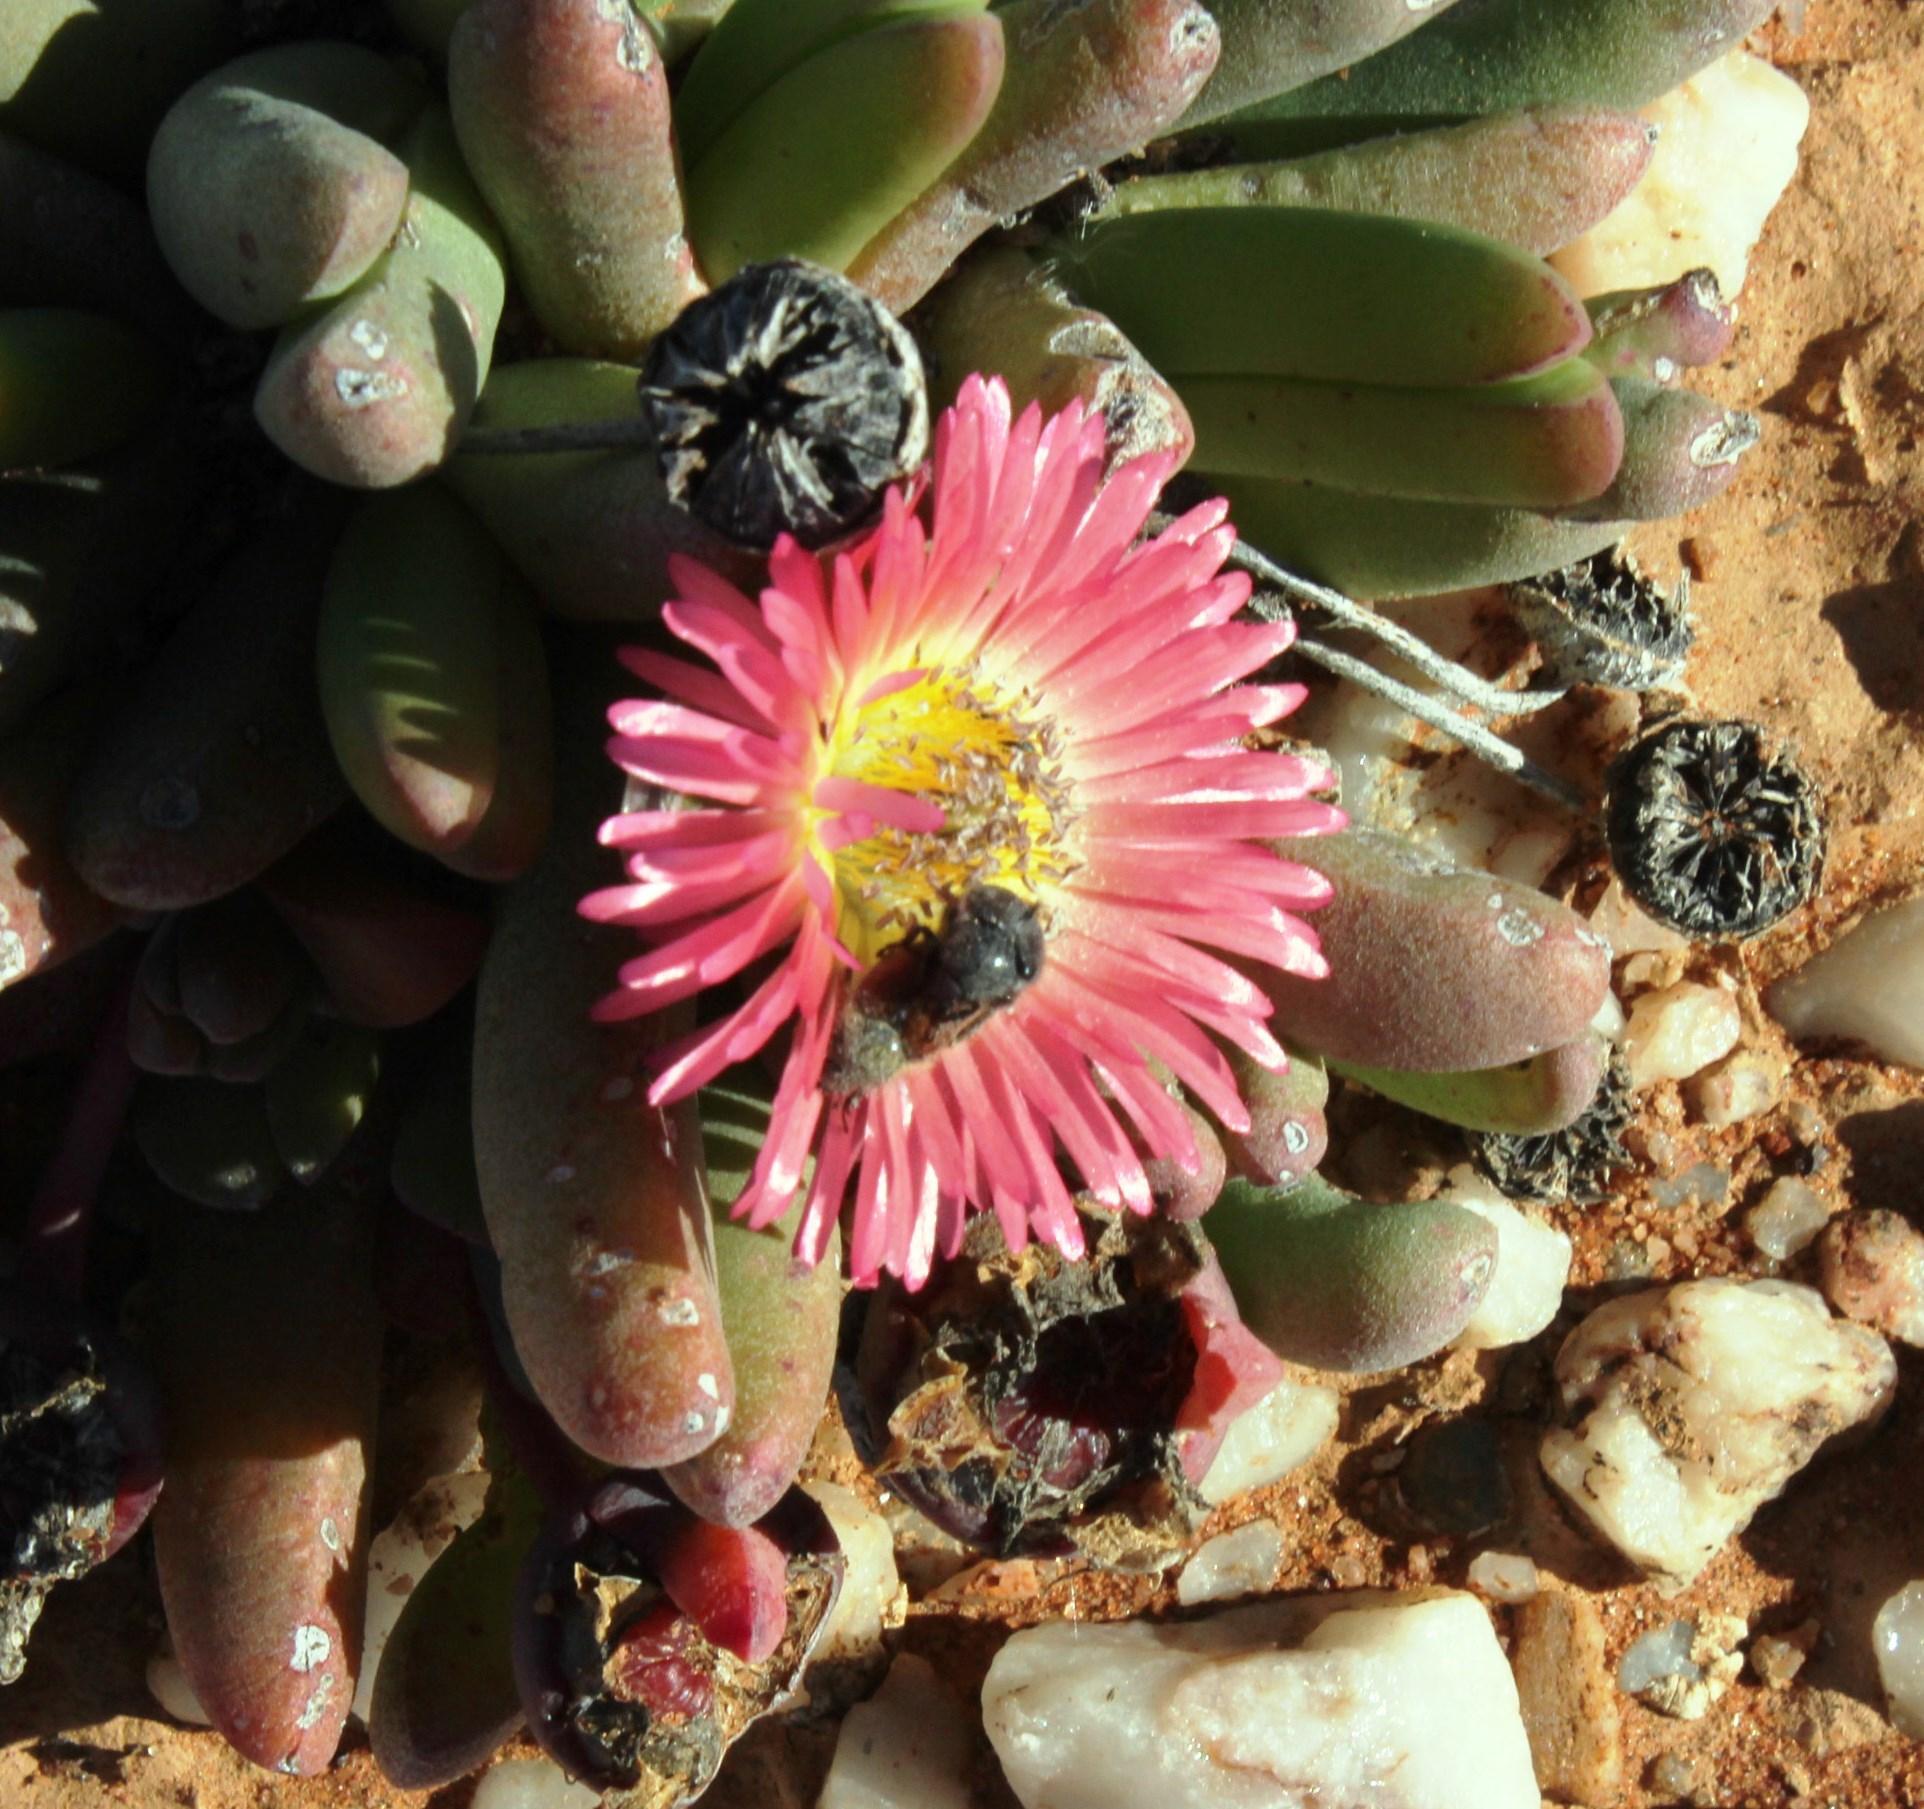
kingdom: Plantae
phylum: Tracheophyta
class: Magnoliopsida
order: Caryophyllales
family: Aizoaceae
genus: Cephalophyllum
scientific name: Cephalophyllum spissum
